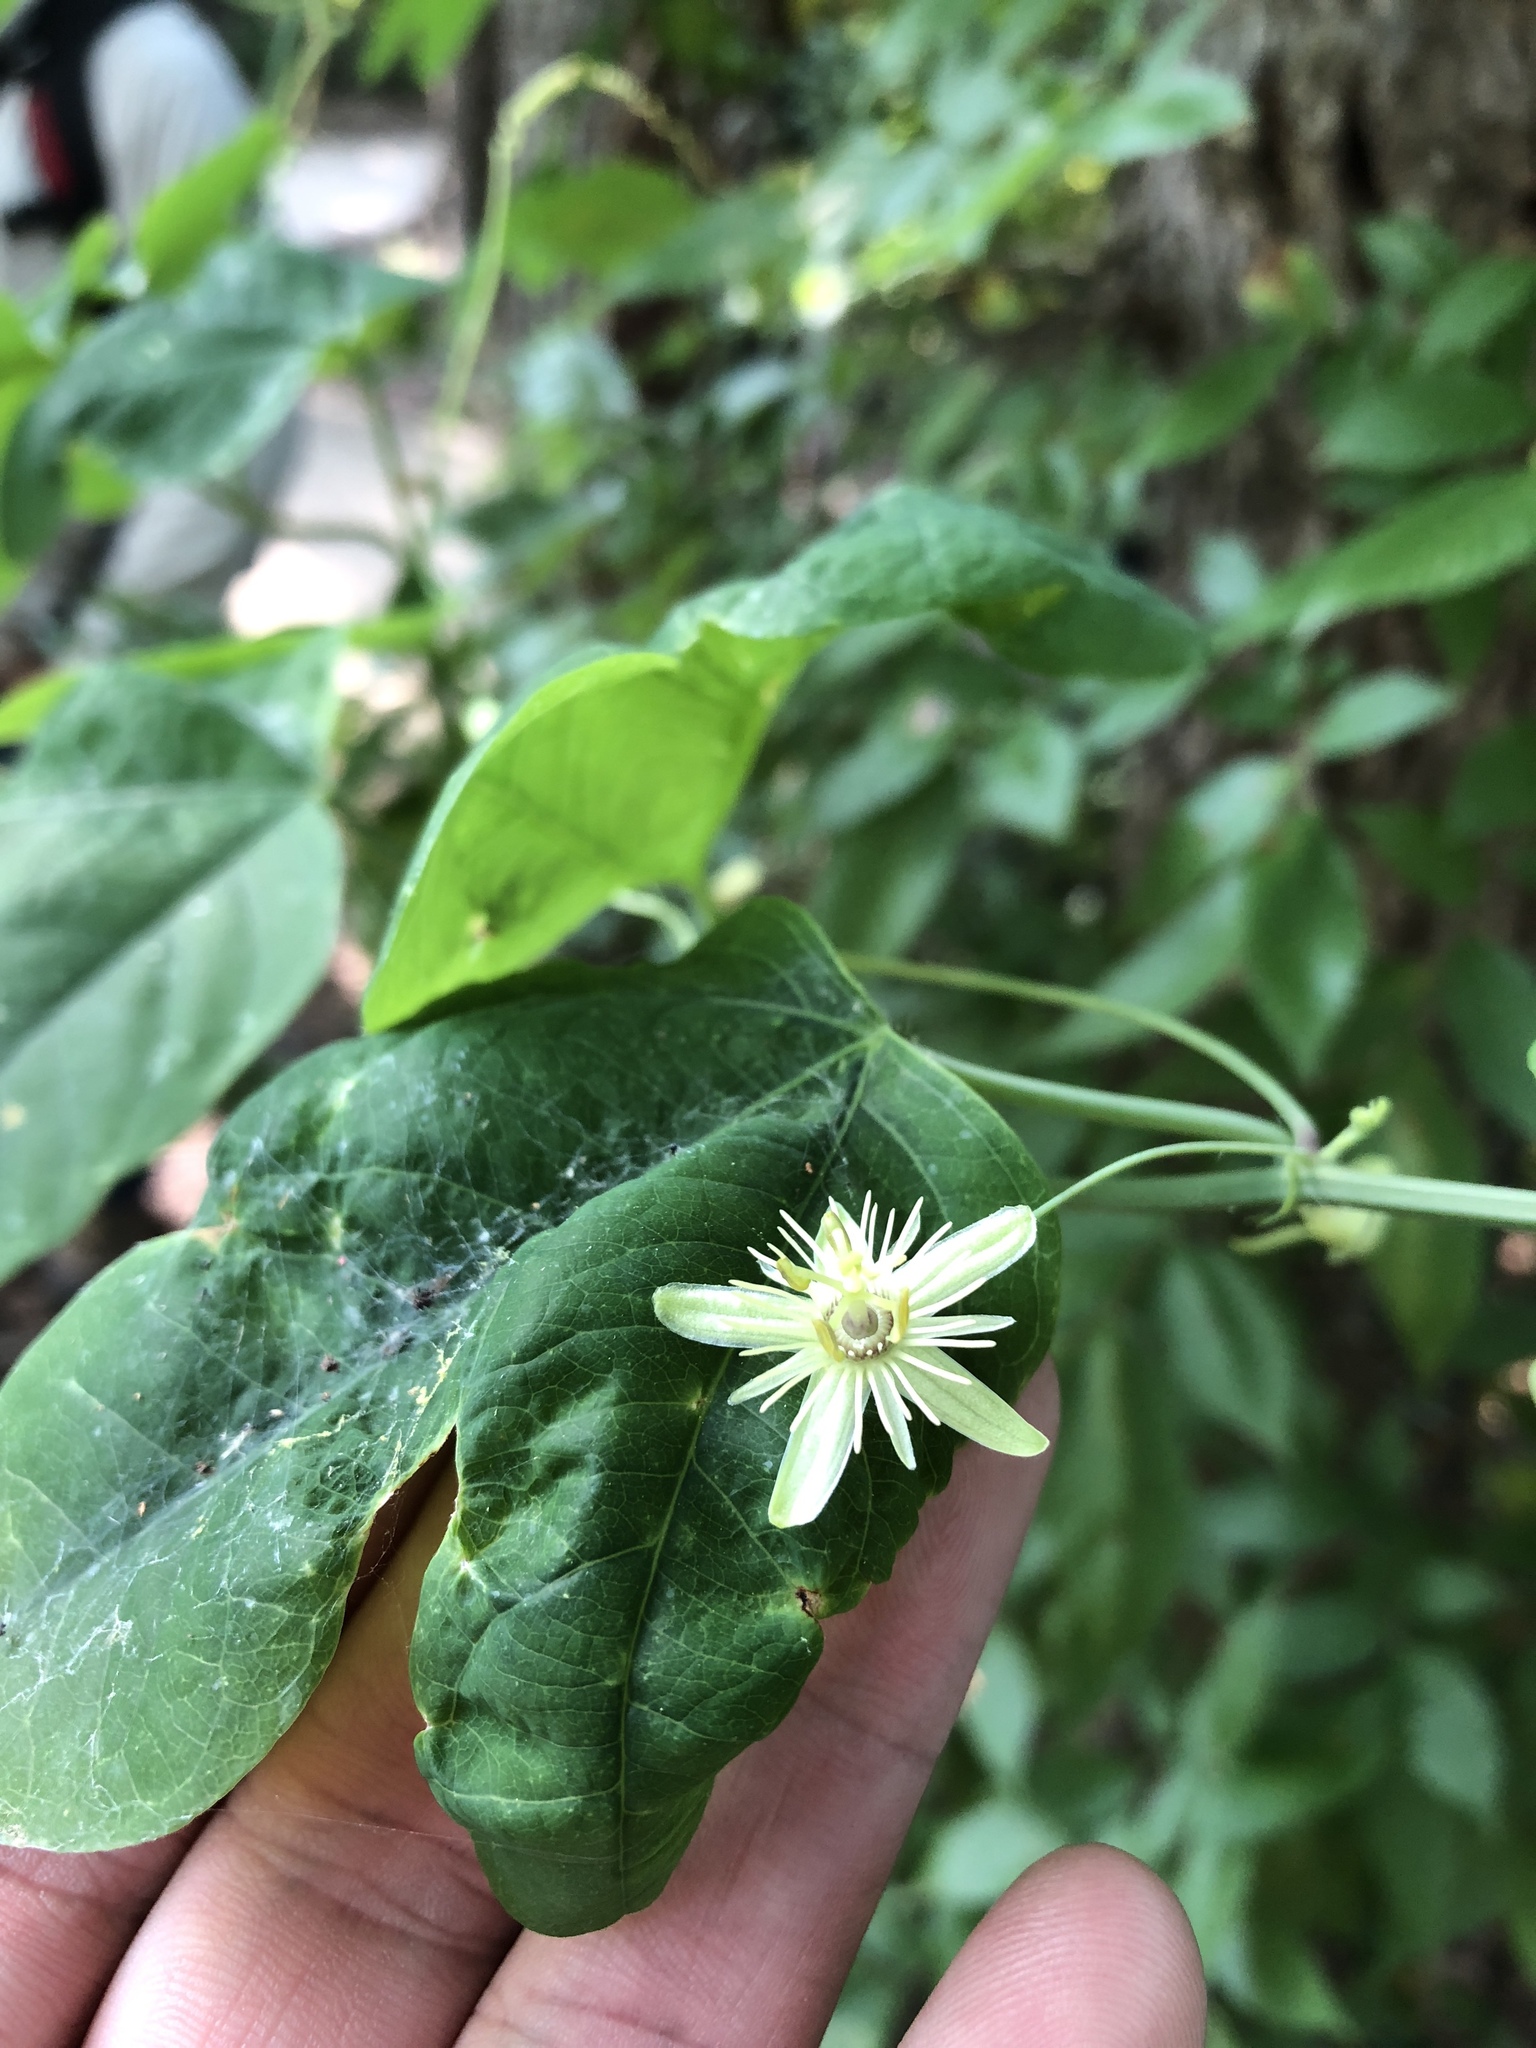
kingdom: Plantae
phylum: Tracheophyta
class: Magnoliopsida
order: Malpighiales
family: Passifloraceae
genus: Passiflora
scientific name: Passiflora lutea
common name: Yellow passionflower
